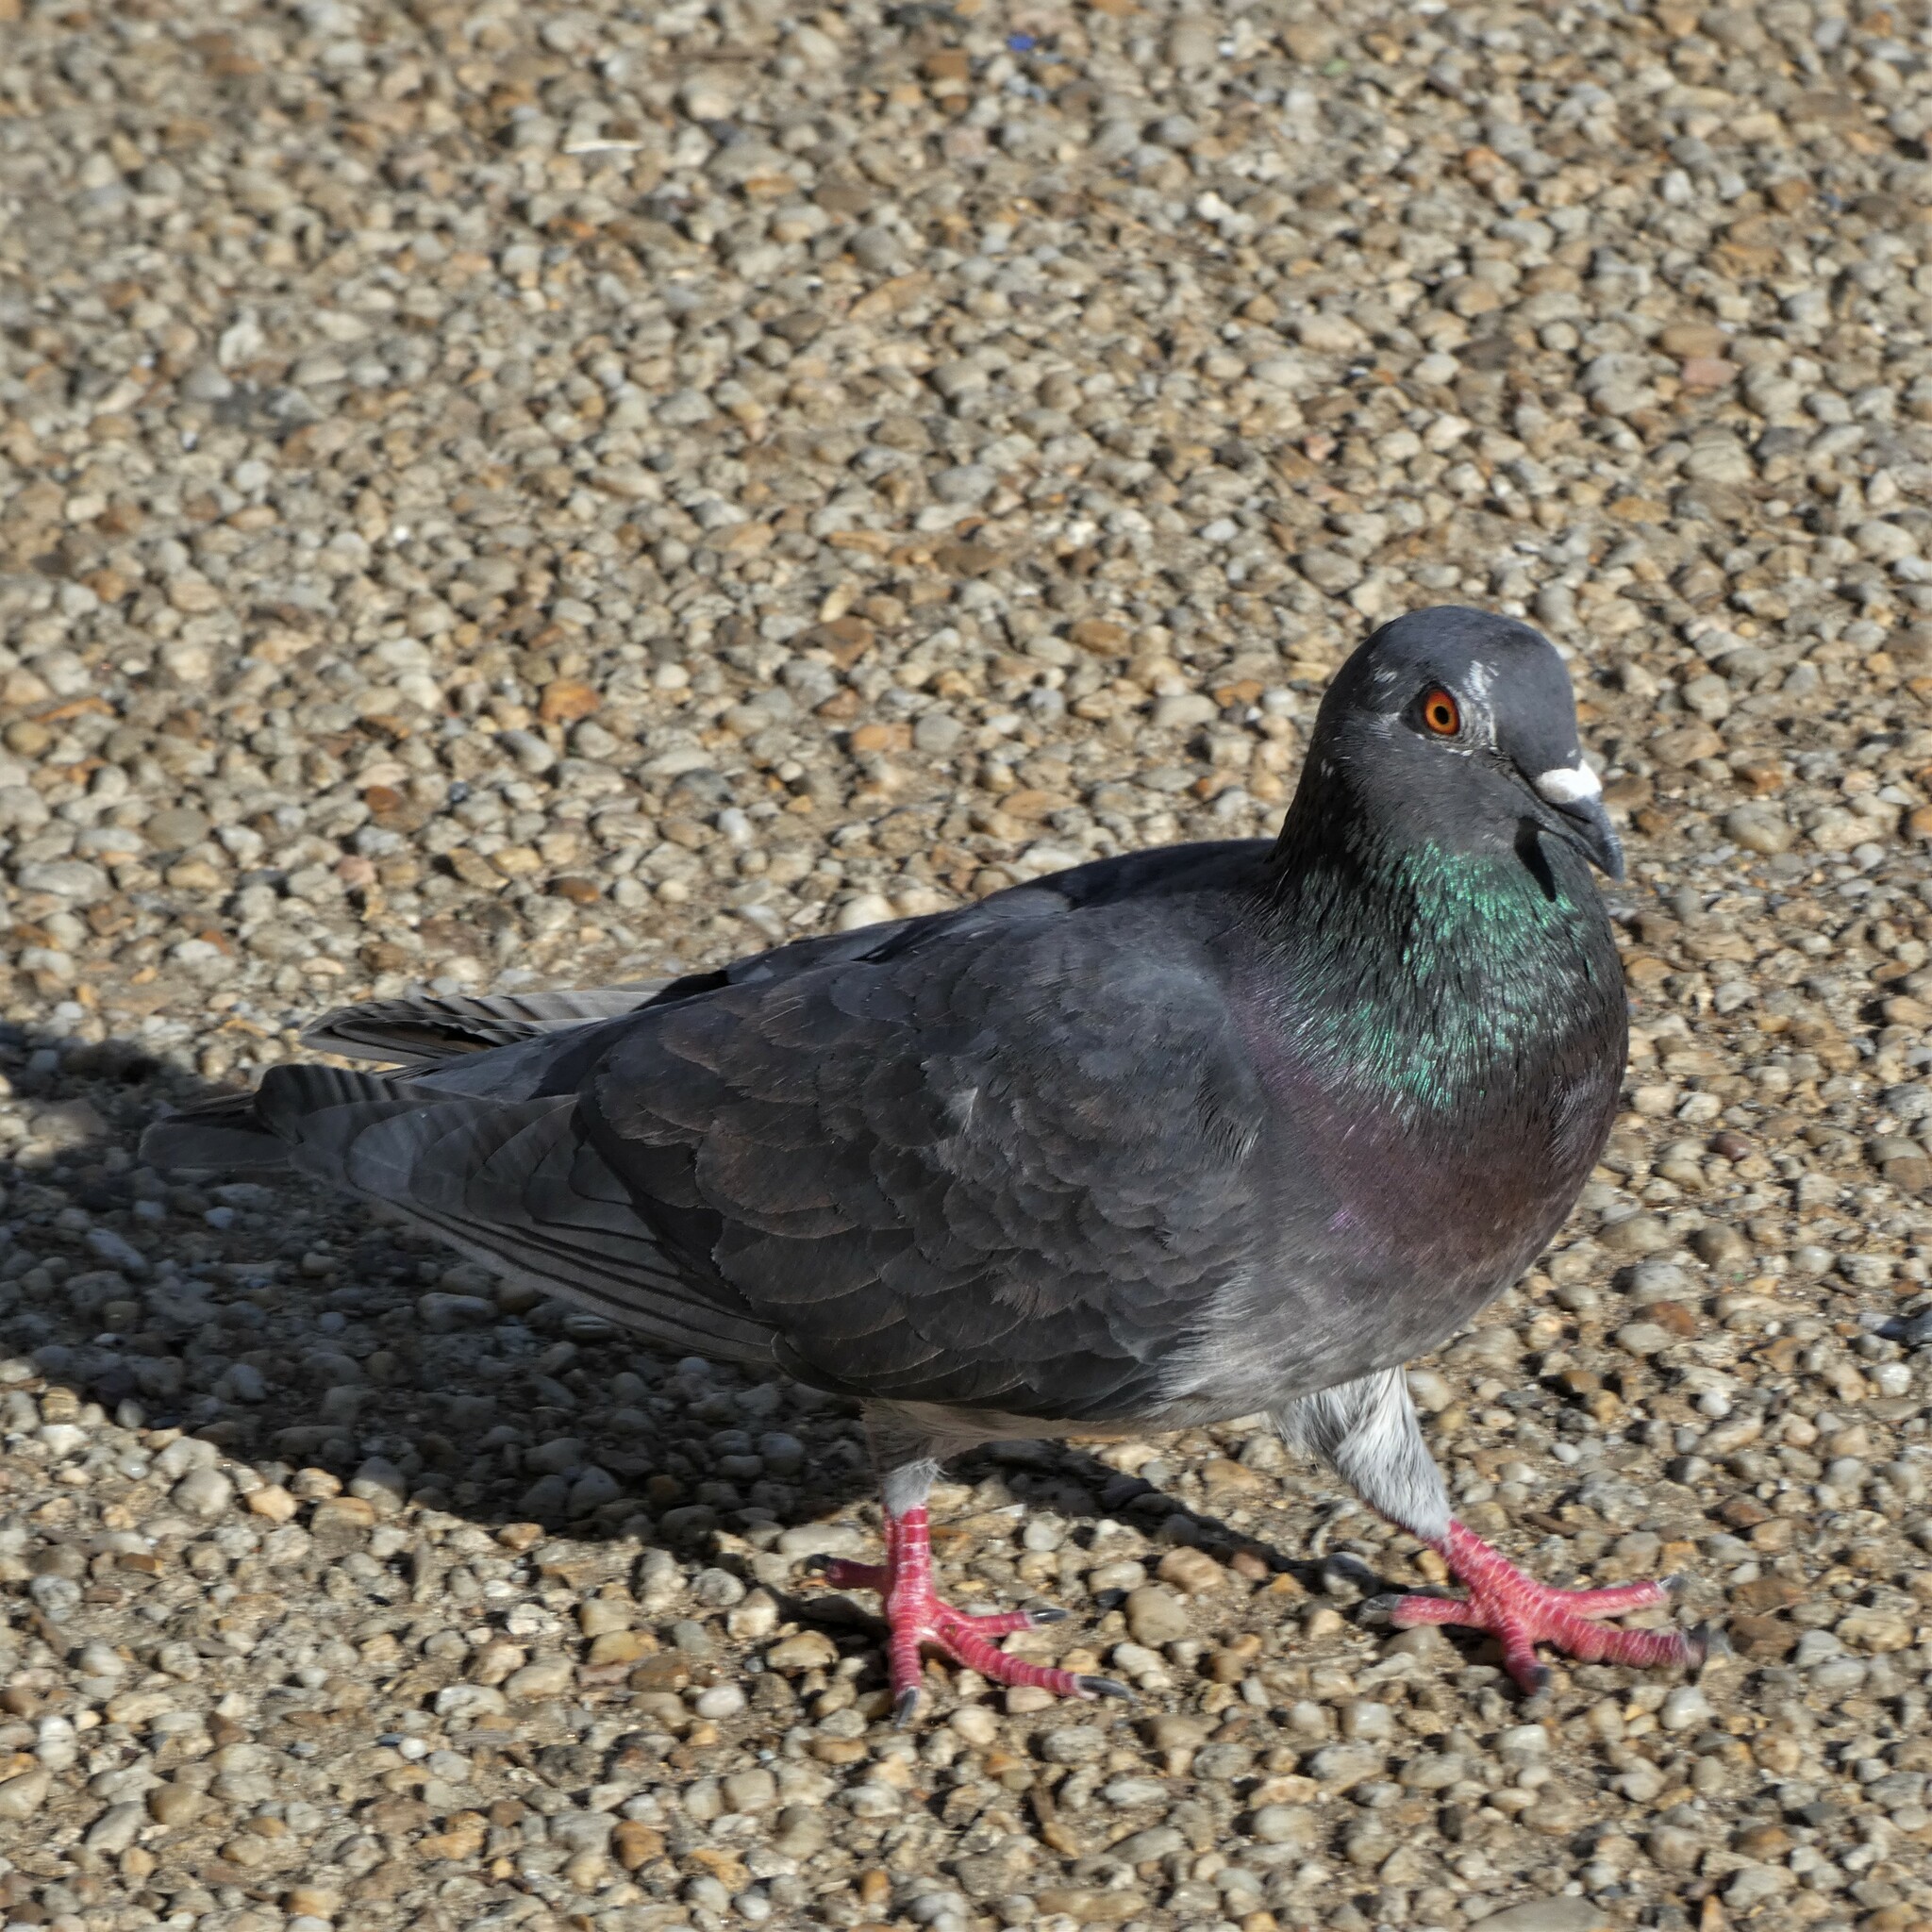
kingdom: Animalia
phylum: Chordata
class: Aves
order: Columbiformes
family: Columbidae
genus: Columba
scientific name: Columba livia
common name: Rock pigeon
